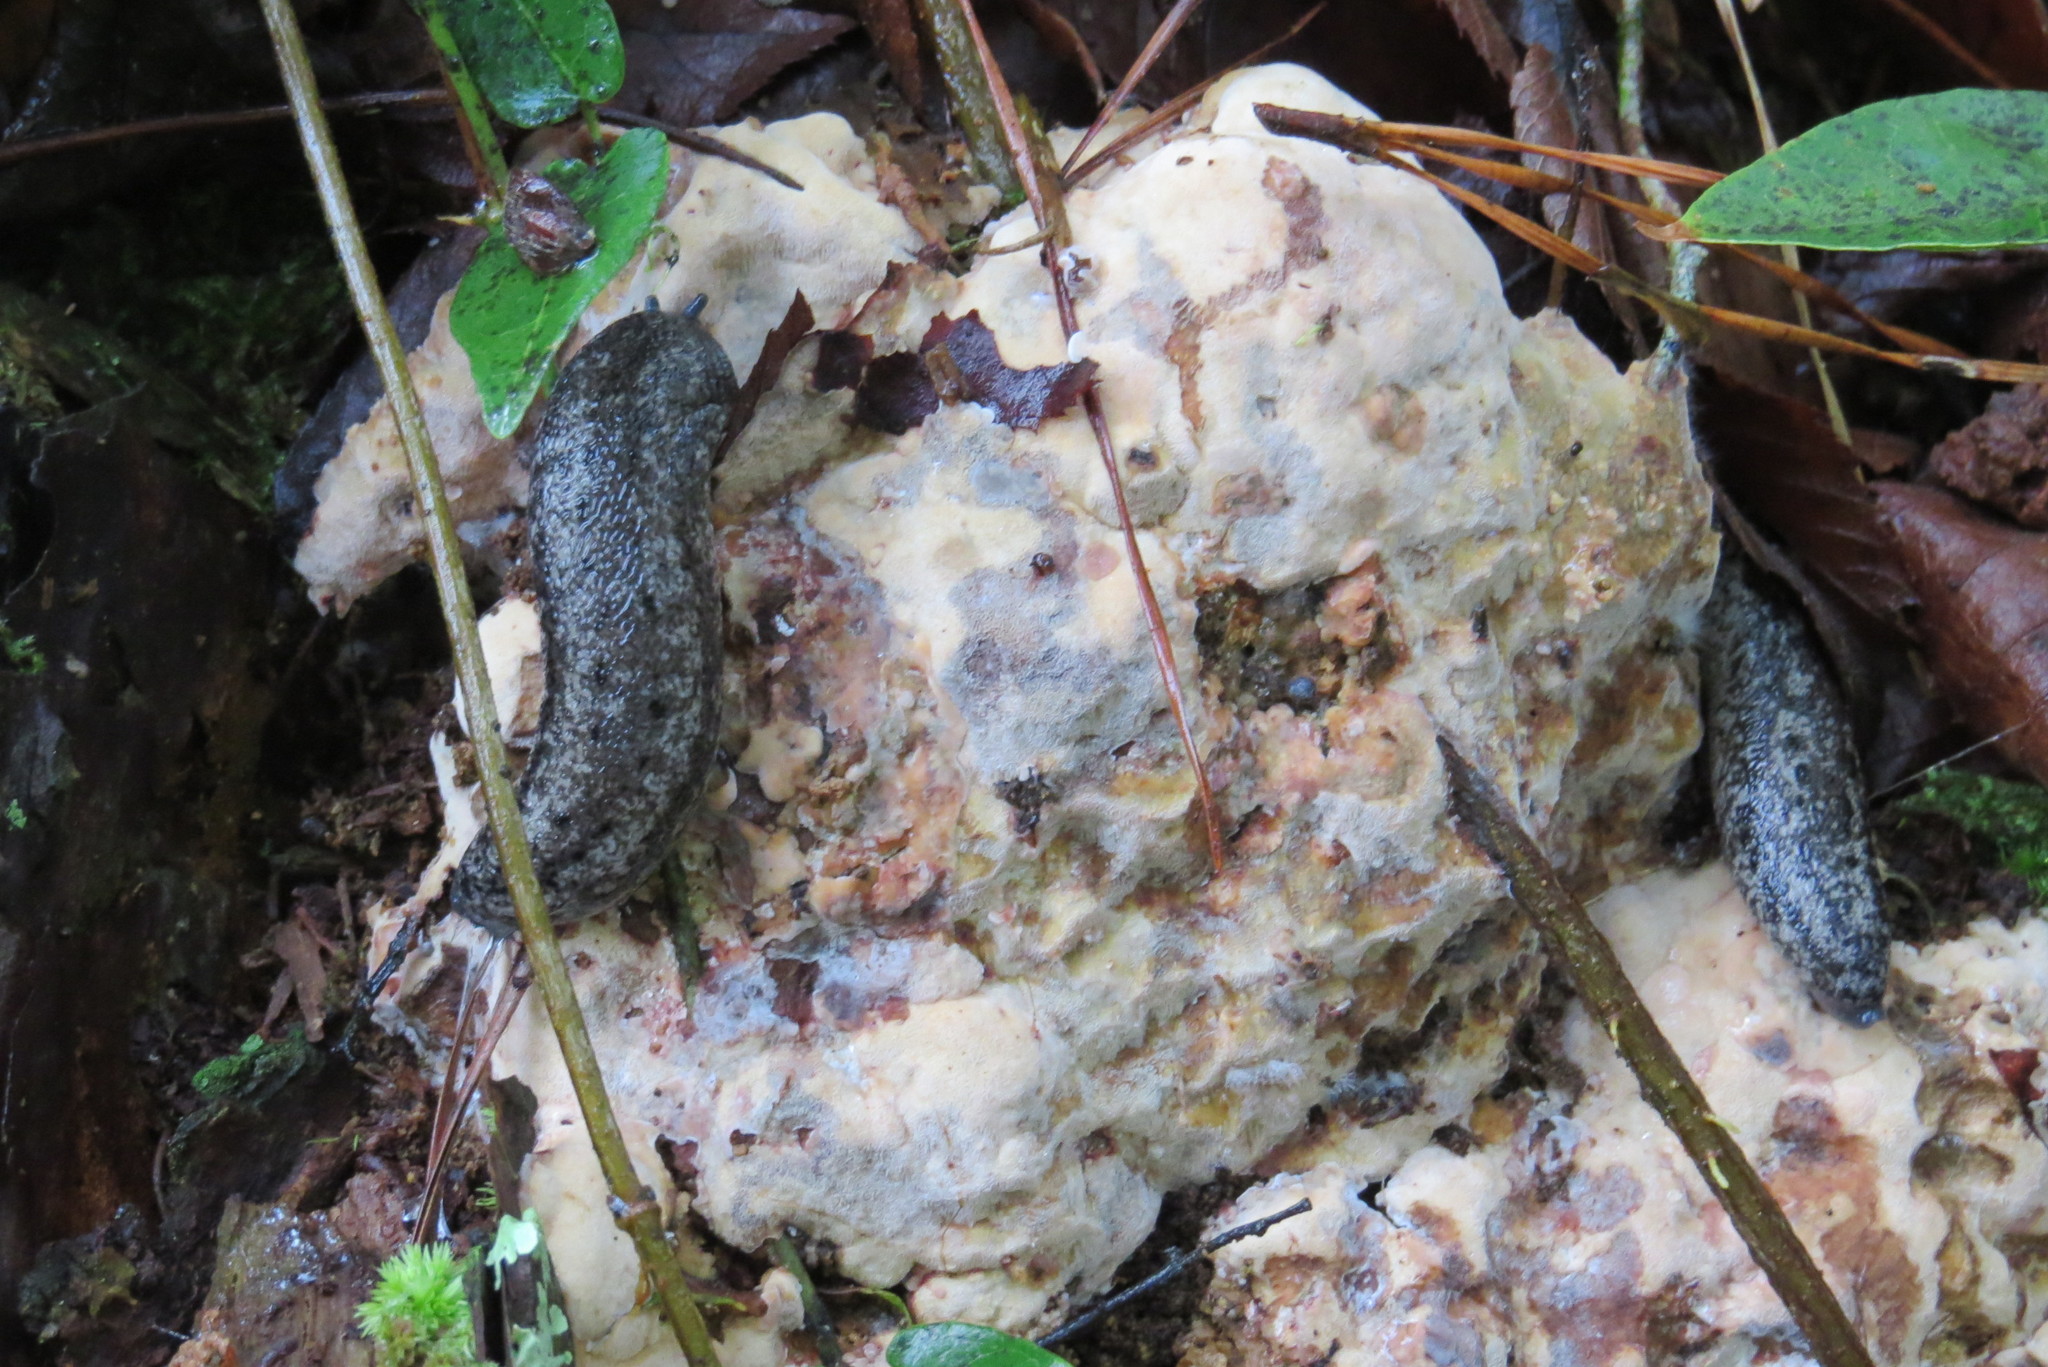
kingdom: Animalia
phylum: Mollusca
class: Gastropoda
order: Stylommatophora
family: Philomycidae
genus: Philomycus
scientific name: Philomycus carolinianus
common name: Carolina mantleslug
